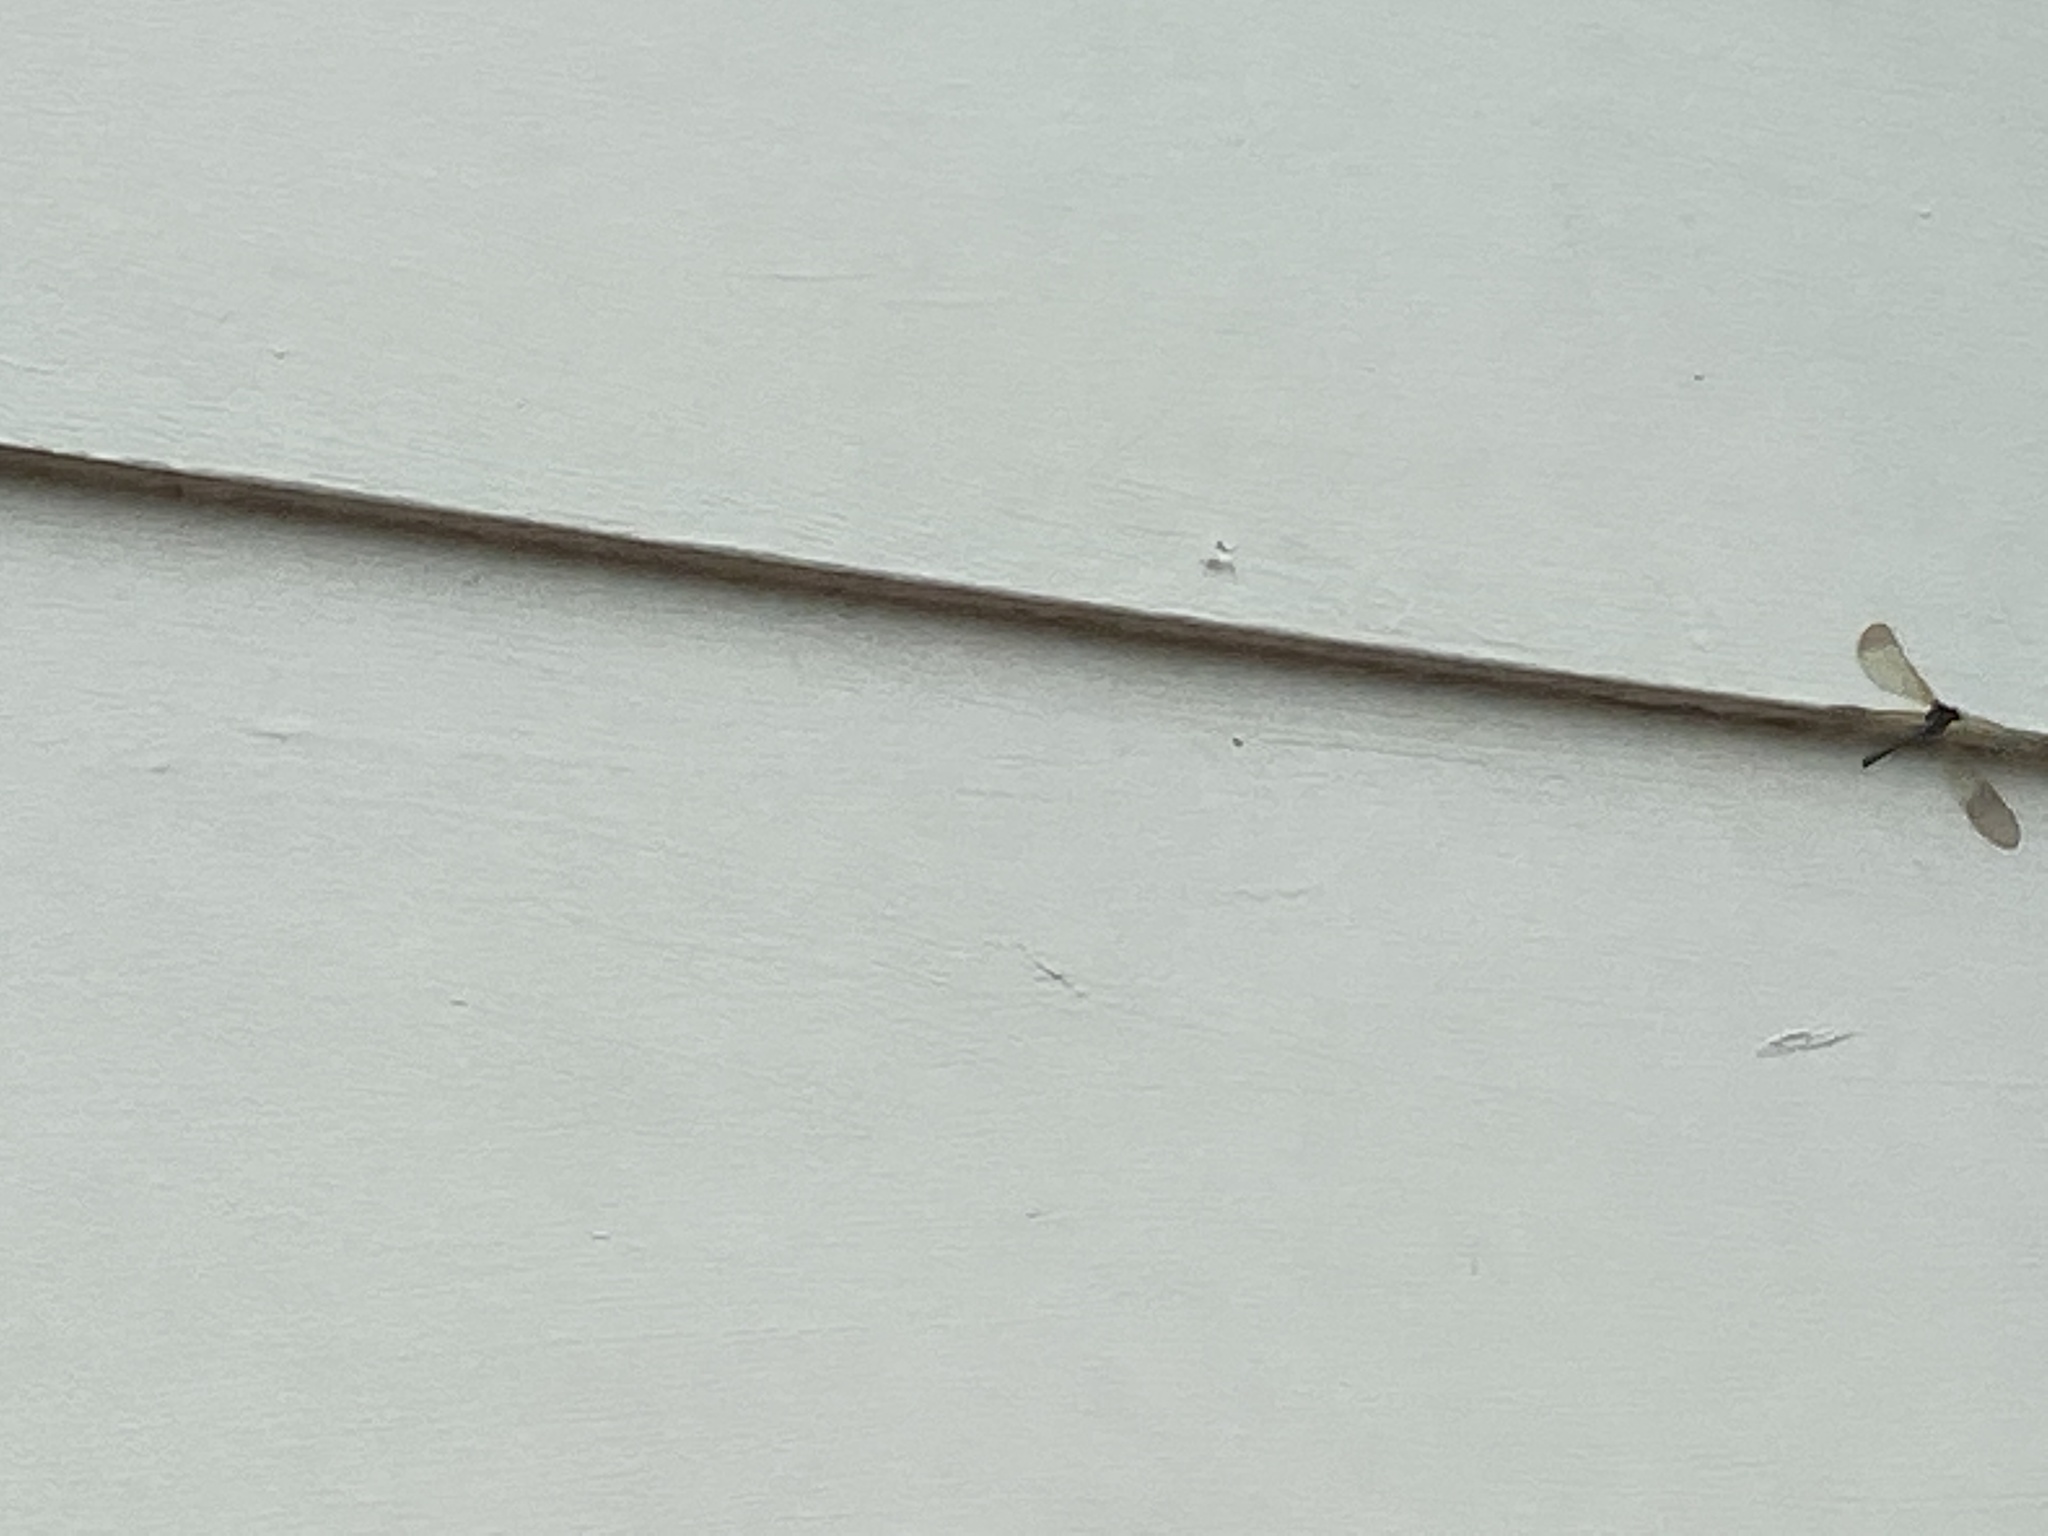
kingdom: Animalia
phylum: Arthropoda
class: Insecta
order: Odonata
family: Calopterygidae
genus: Calopteryx
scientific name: Calopteryx aequabilis
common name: River jewelwing
